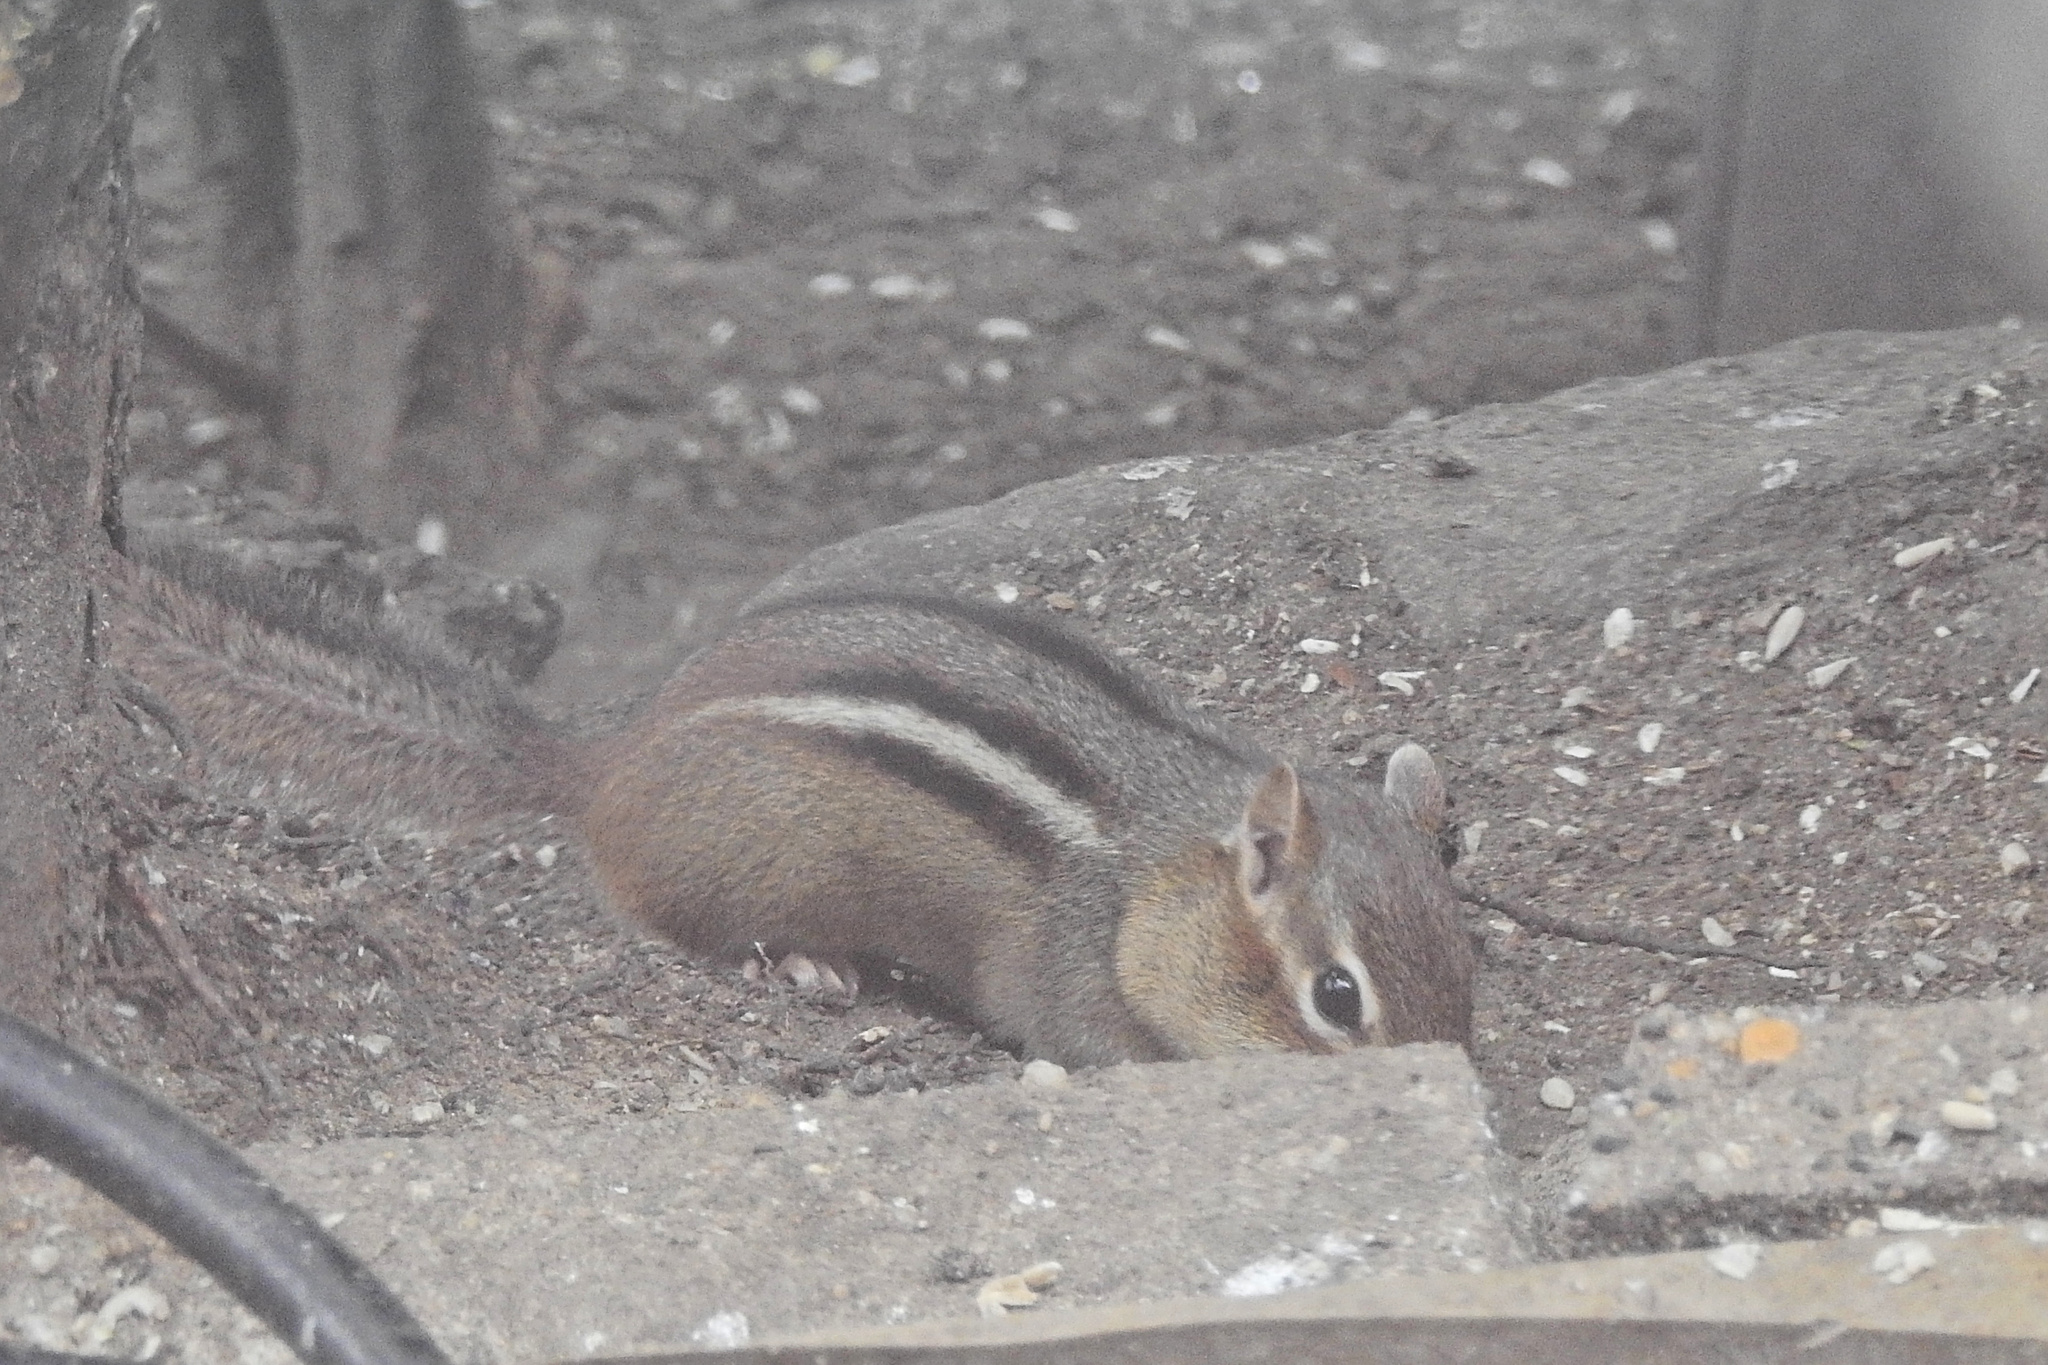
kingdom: Animalia
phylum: Chordata
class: Mammalia
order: Rodentia
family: Sciuridae
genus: Tamias
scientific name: Tamias striatus
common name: Eastern chipmunk
